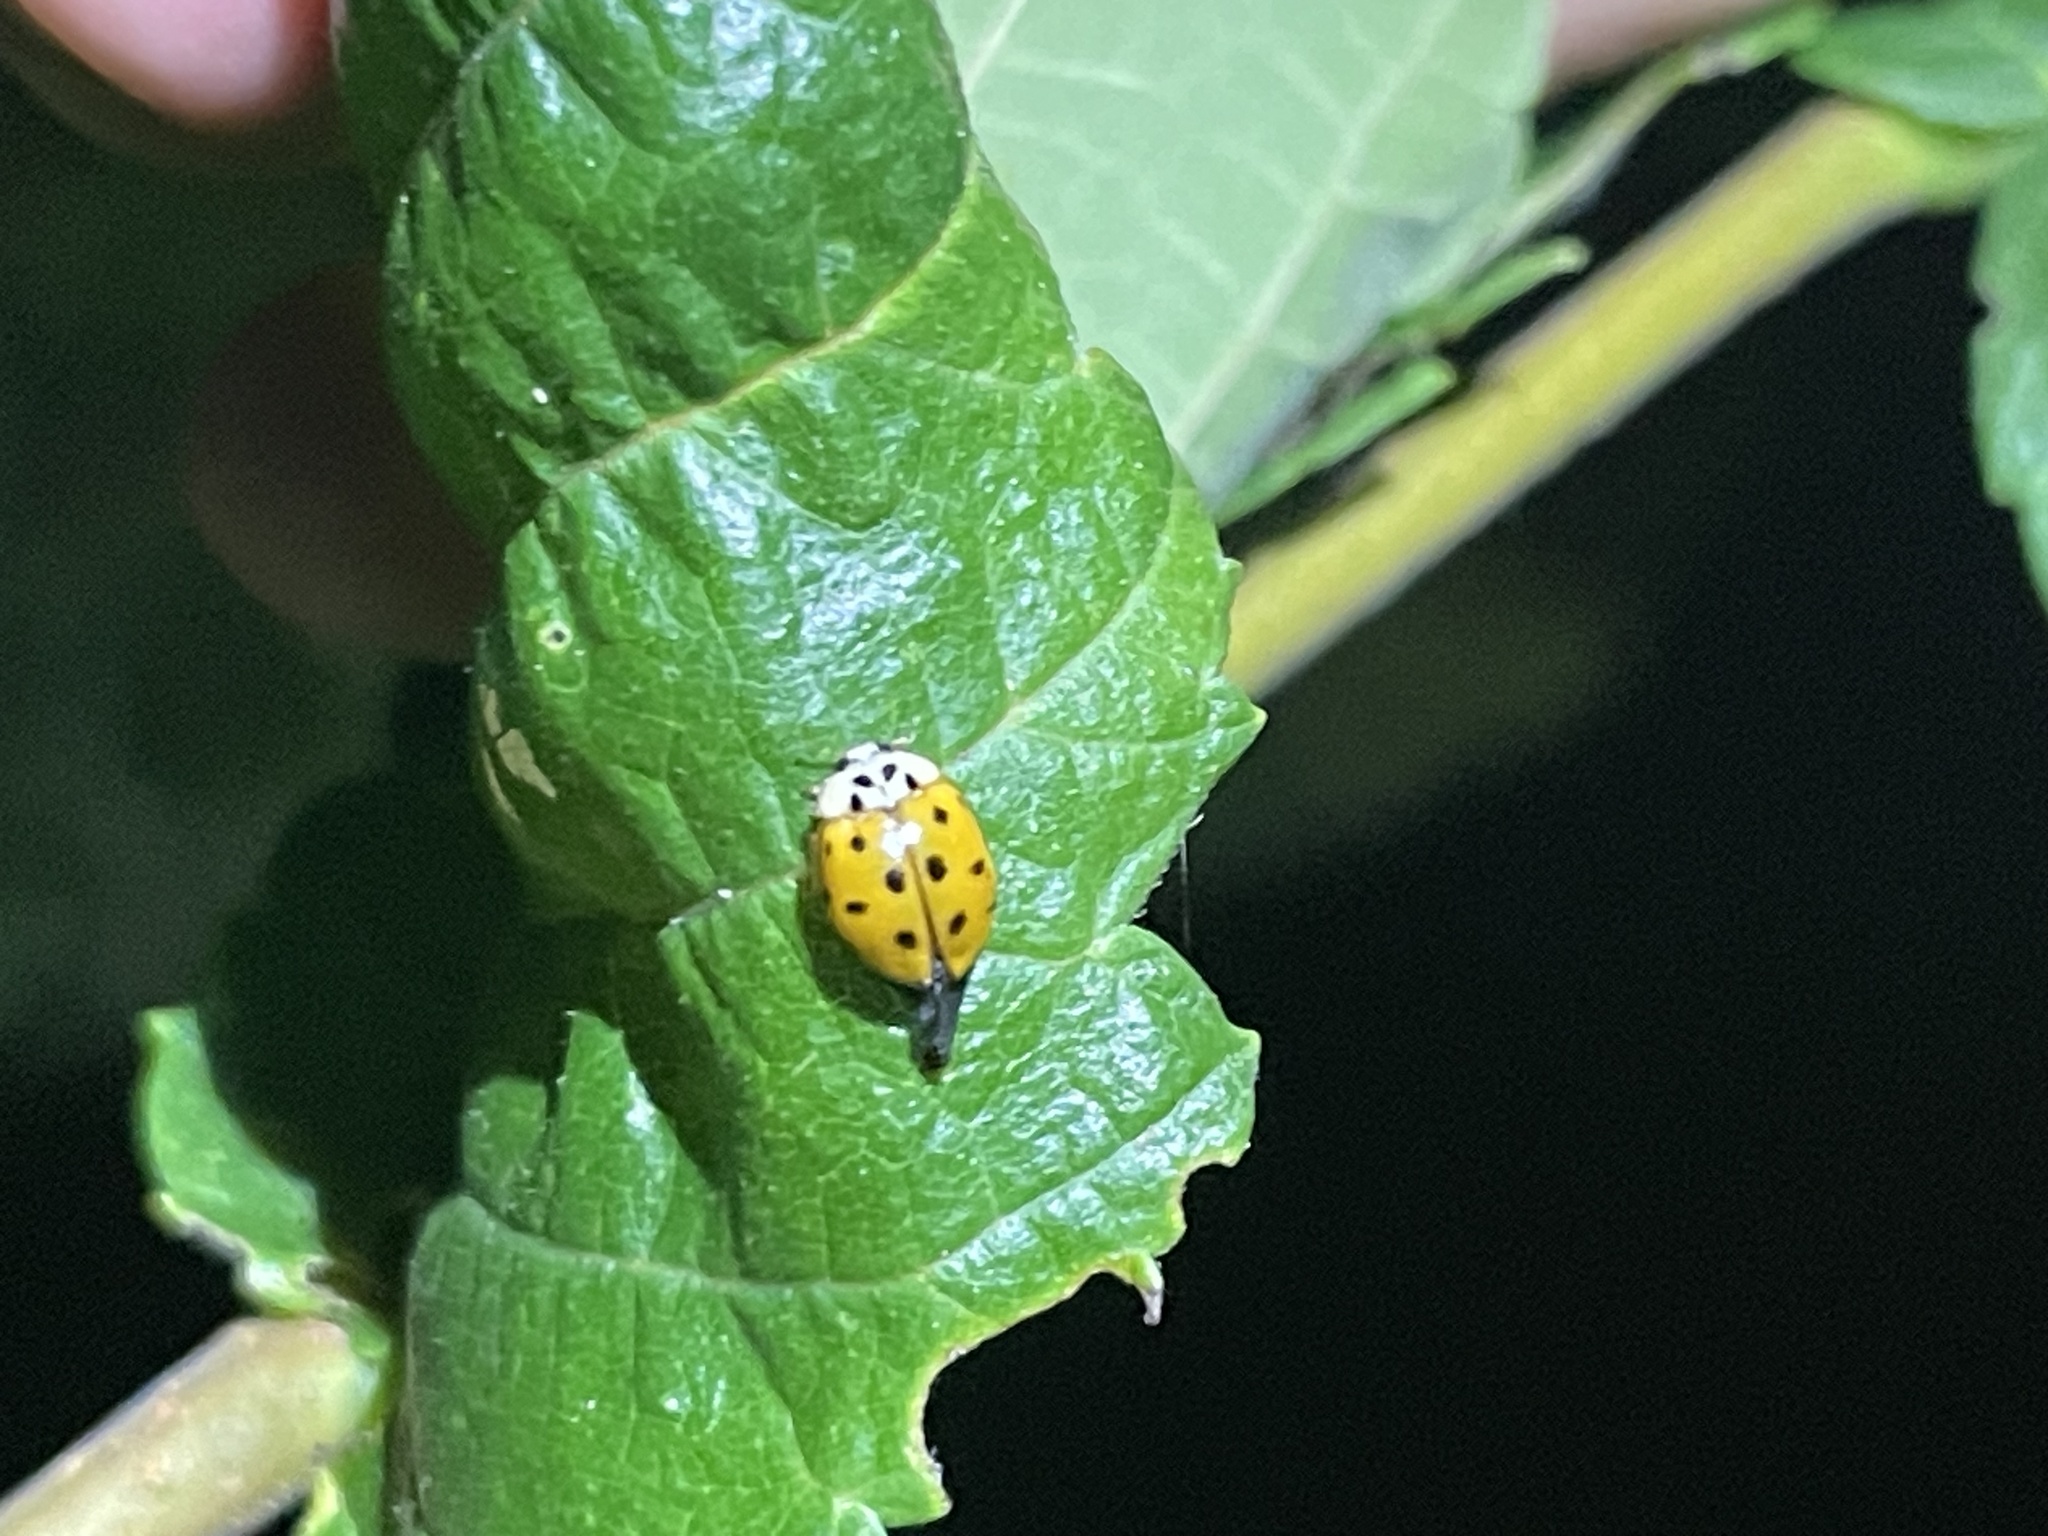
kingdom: Animalia
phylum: Arthropoda
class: Insecta
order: Coleoptera
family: Coccinellidae
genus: Harmonia
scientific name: Harmonia axyridis
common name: Harlequin ladybird
